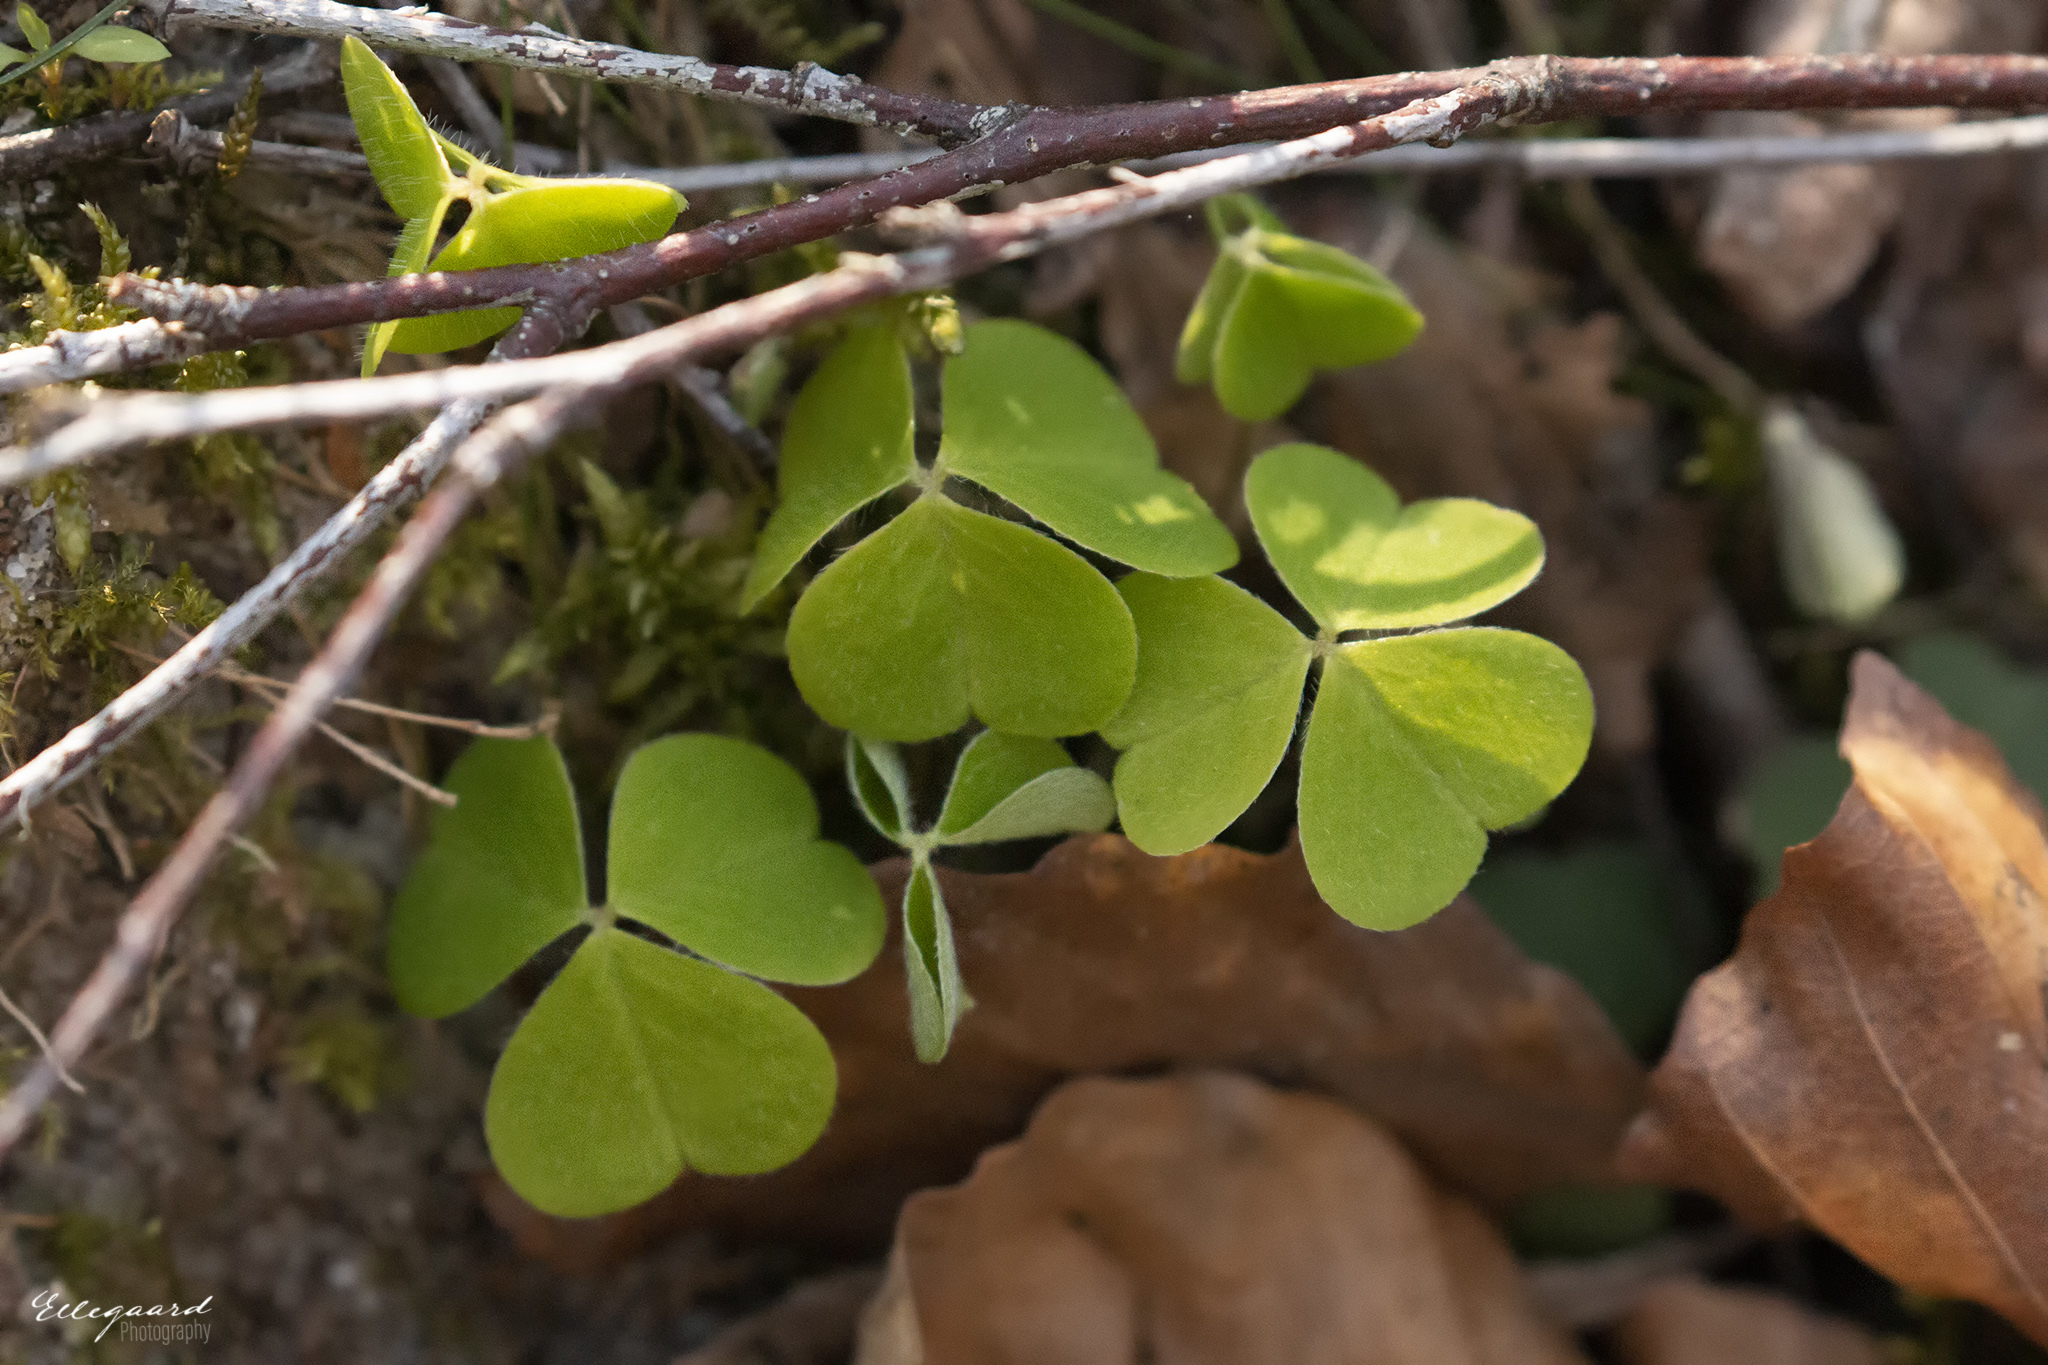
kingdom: Plantae
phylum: Tracheophyta
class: Magnoliopsida
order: Oxalidales
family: Oxalidaceae
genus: Oxalis
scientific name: Oxalis acetosella
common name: Wood-sorrel
